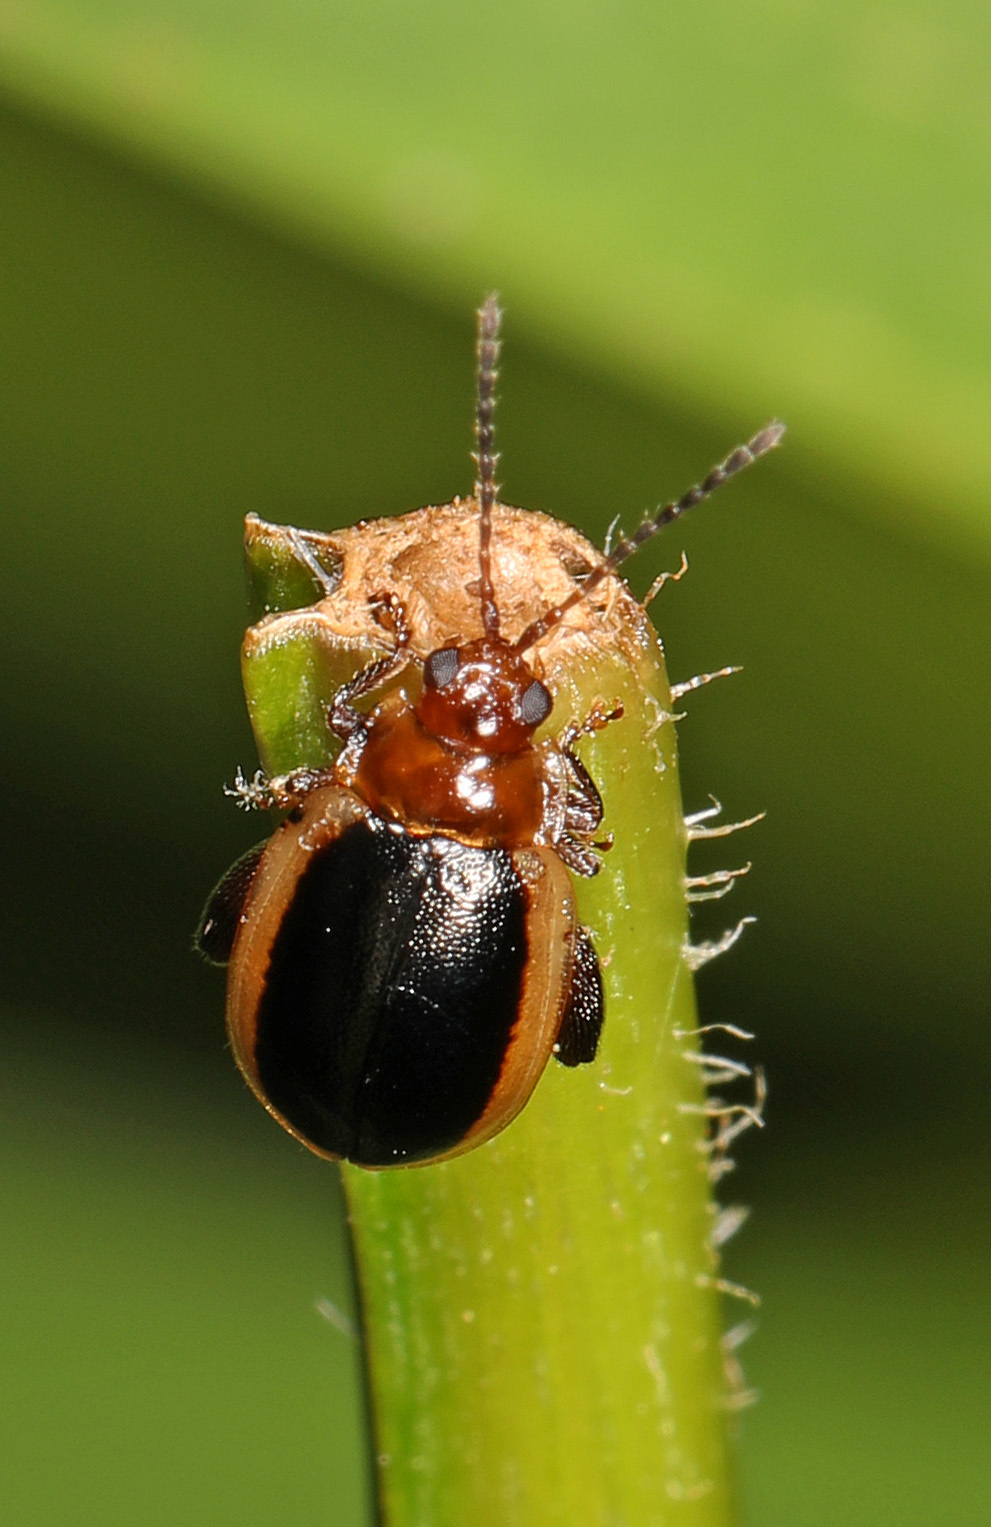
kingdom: Animalia
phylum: Arthropoda
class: Insecta
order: Coleoptera
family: Chrysomelidae
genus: Capraita
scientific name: Capraita thyamoides
